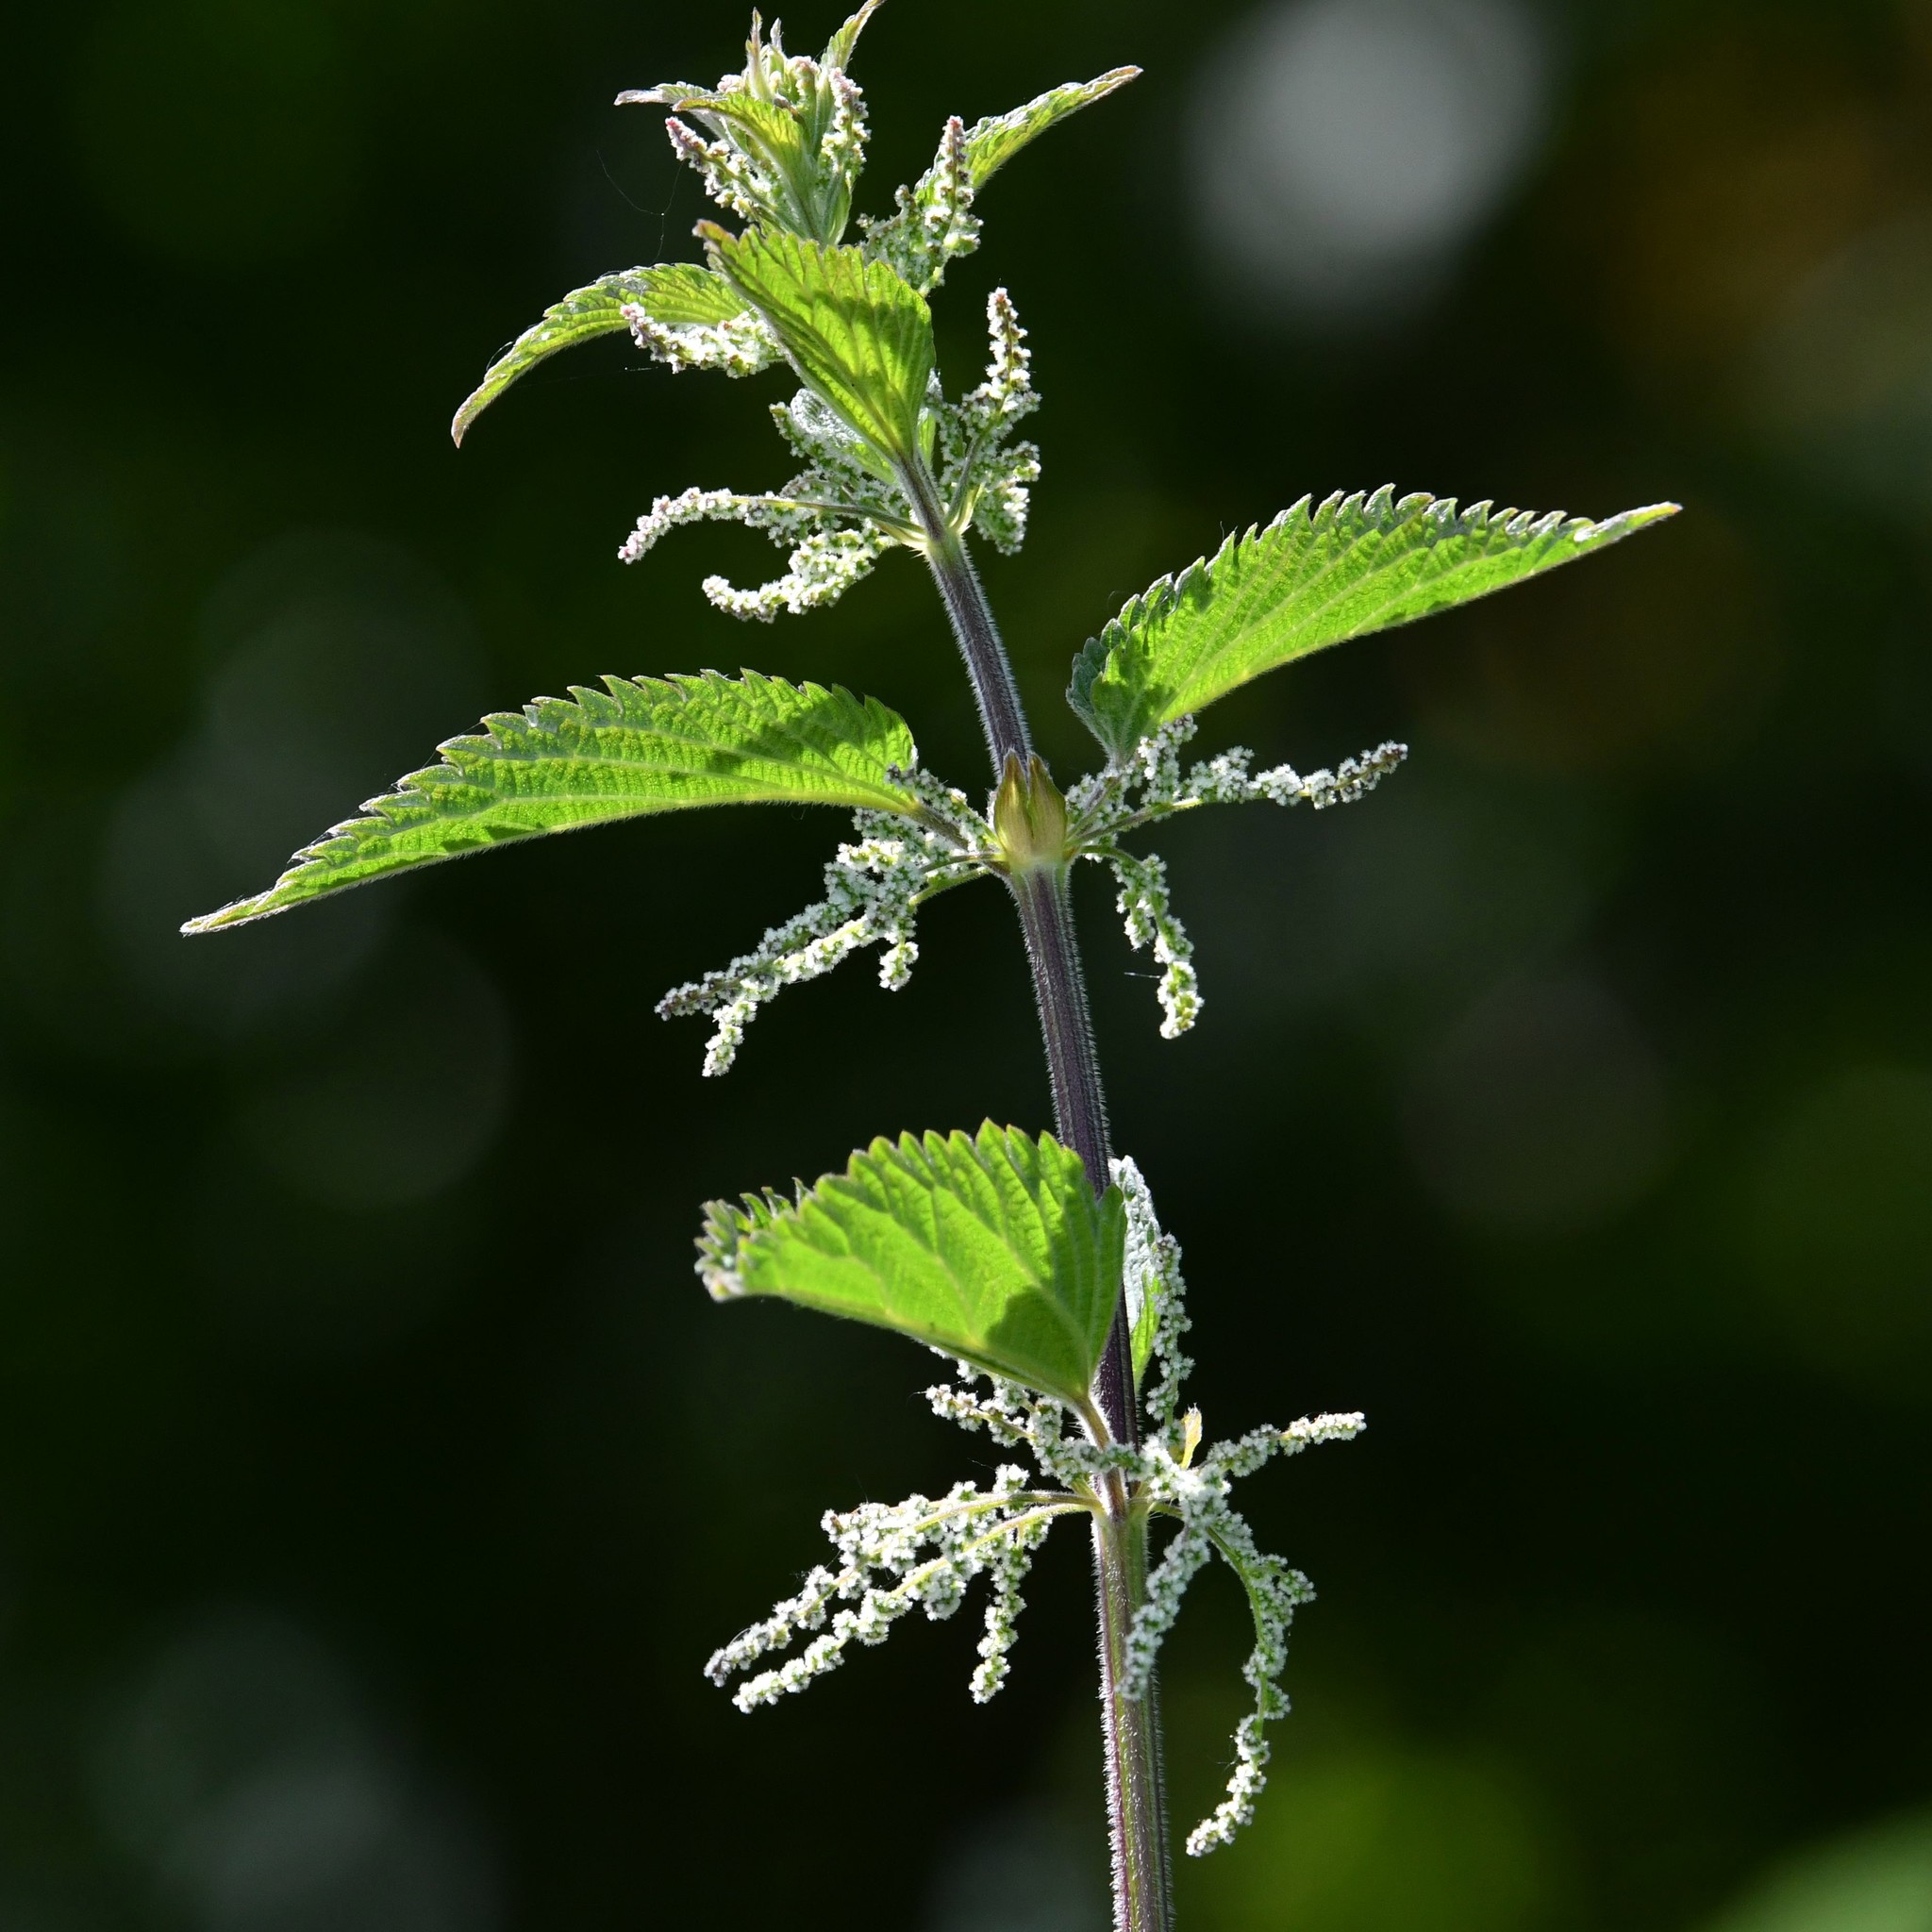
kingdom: Plantae
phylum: Tracheophyta
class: Magnoliopsida
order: Rosales
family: Urticaceae
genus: Urtica
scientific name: Urtica dioica
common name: Common nettle
